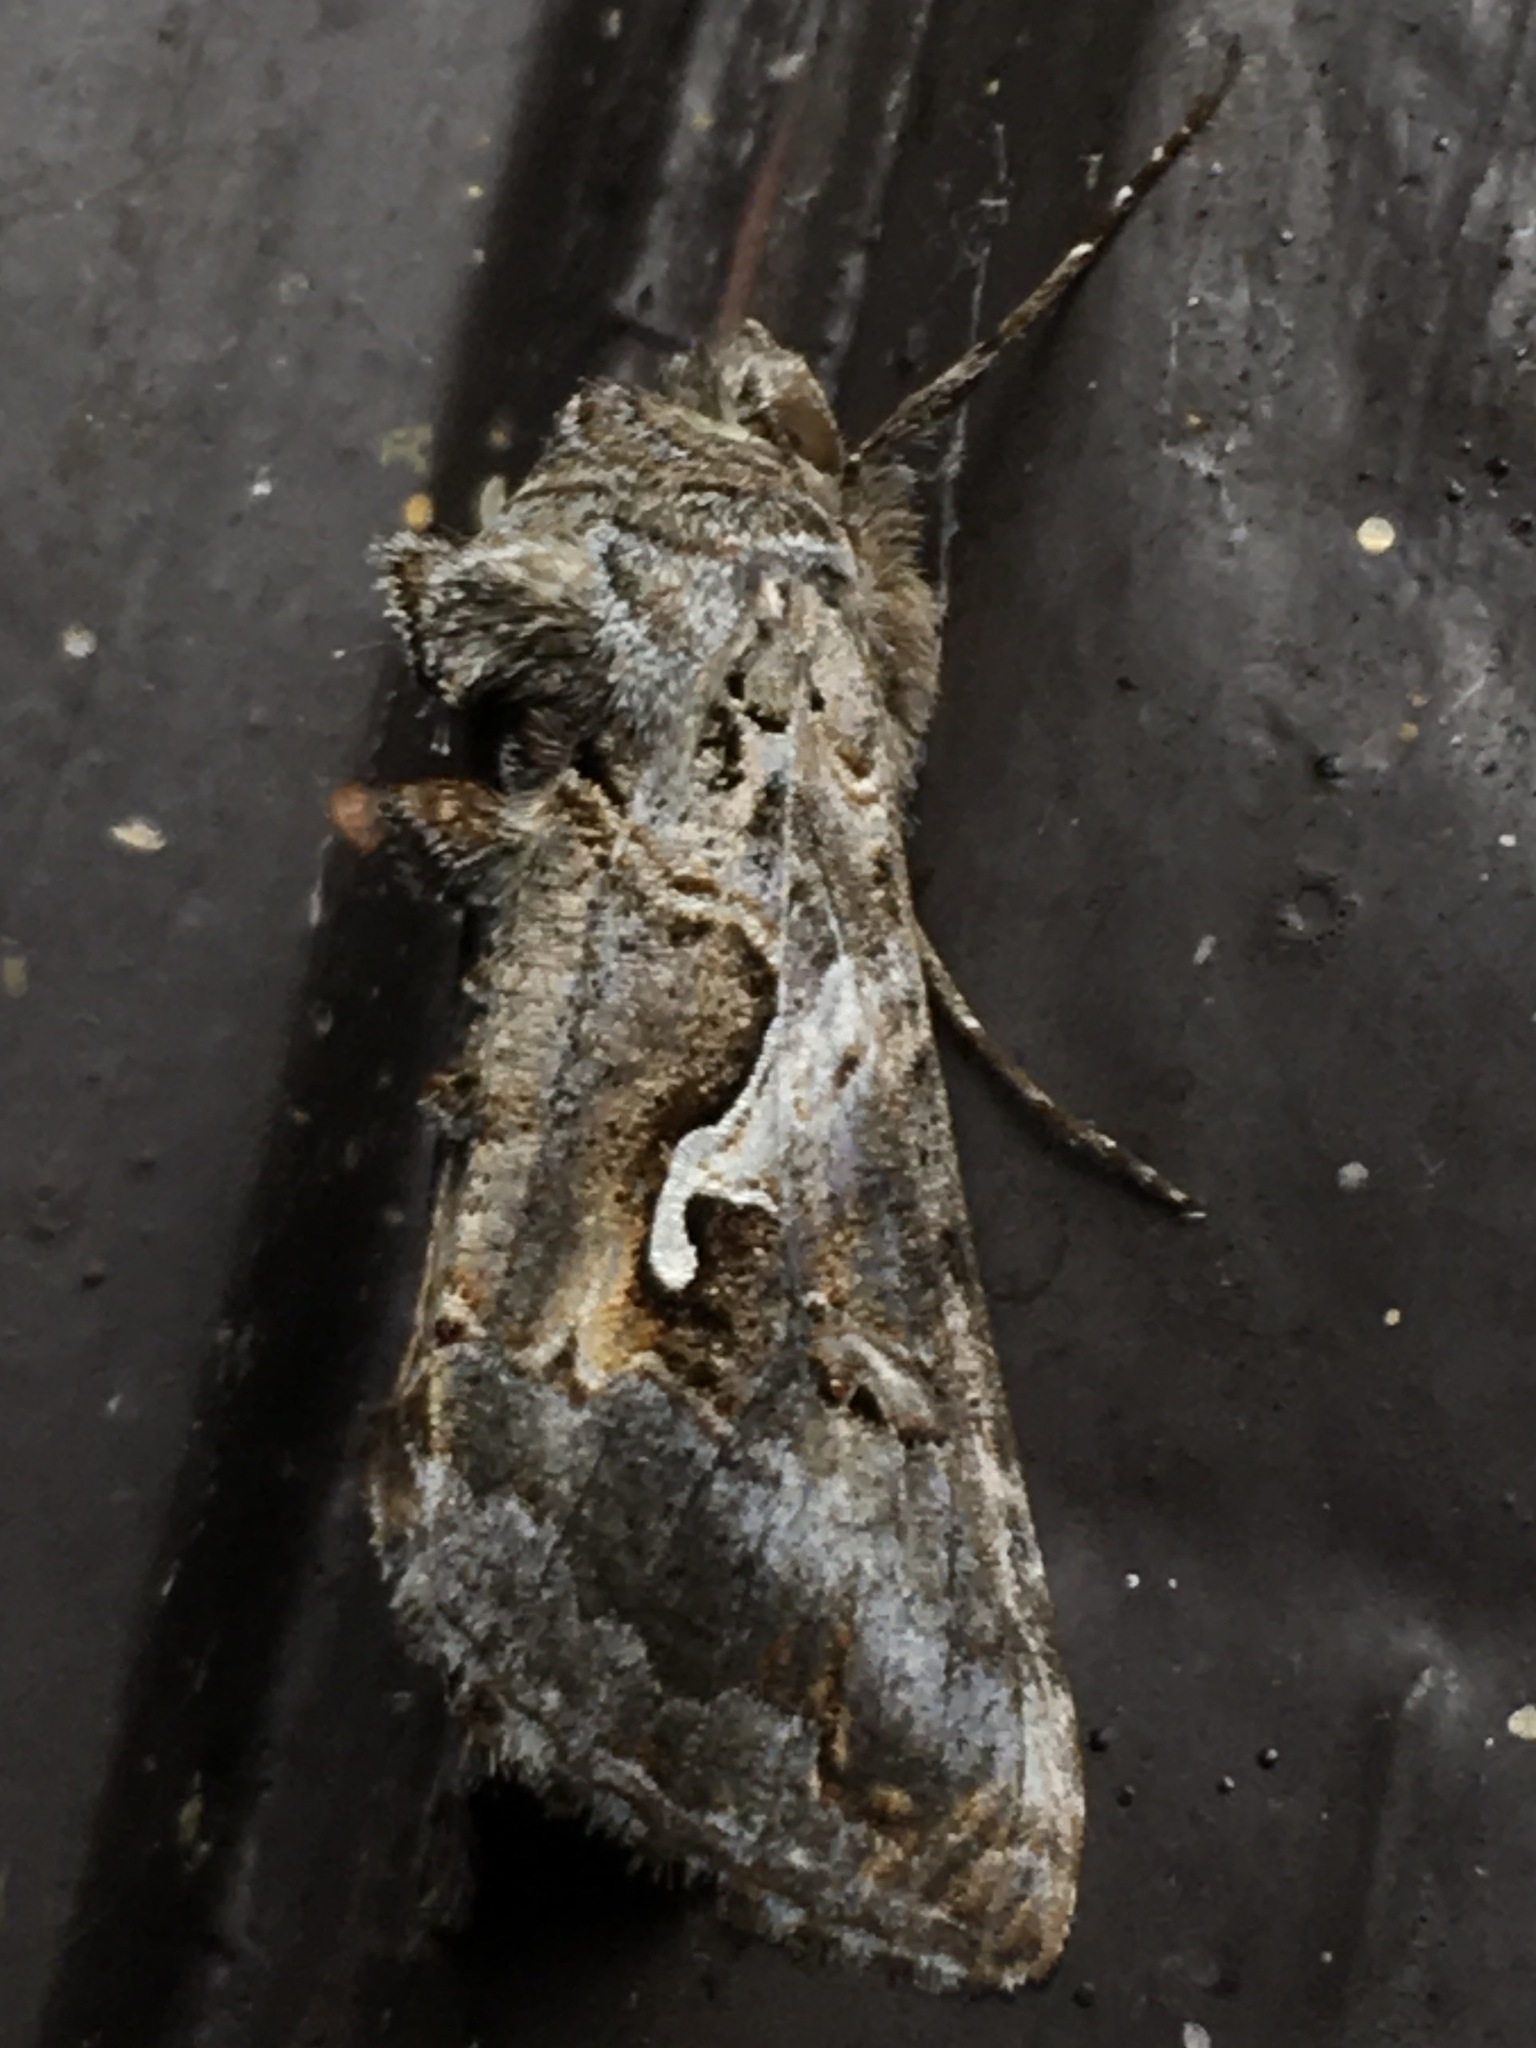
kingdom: Animalia
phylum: Arthropoda
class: Insecta
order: Lepidoptera
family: Noctuidae
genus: Autographa
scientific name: Autographa californica
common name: Alfalfa looper
